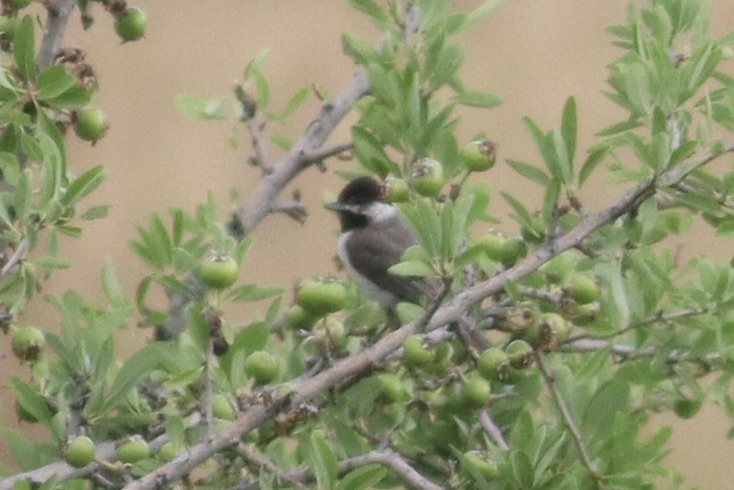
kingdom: Animalia
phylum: Chordata
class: Aves
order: Passeriformes
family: Paridae
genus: Poecile
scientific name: Poecile lugubris
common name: Sombre tit
